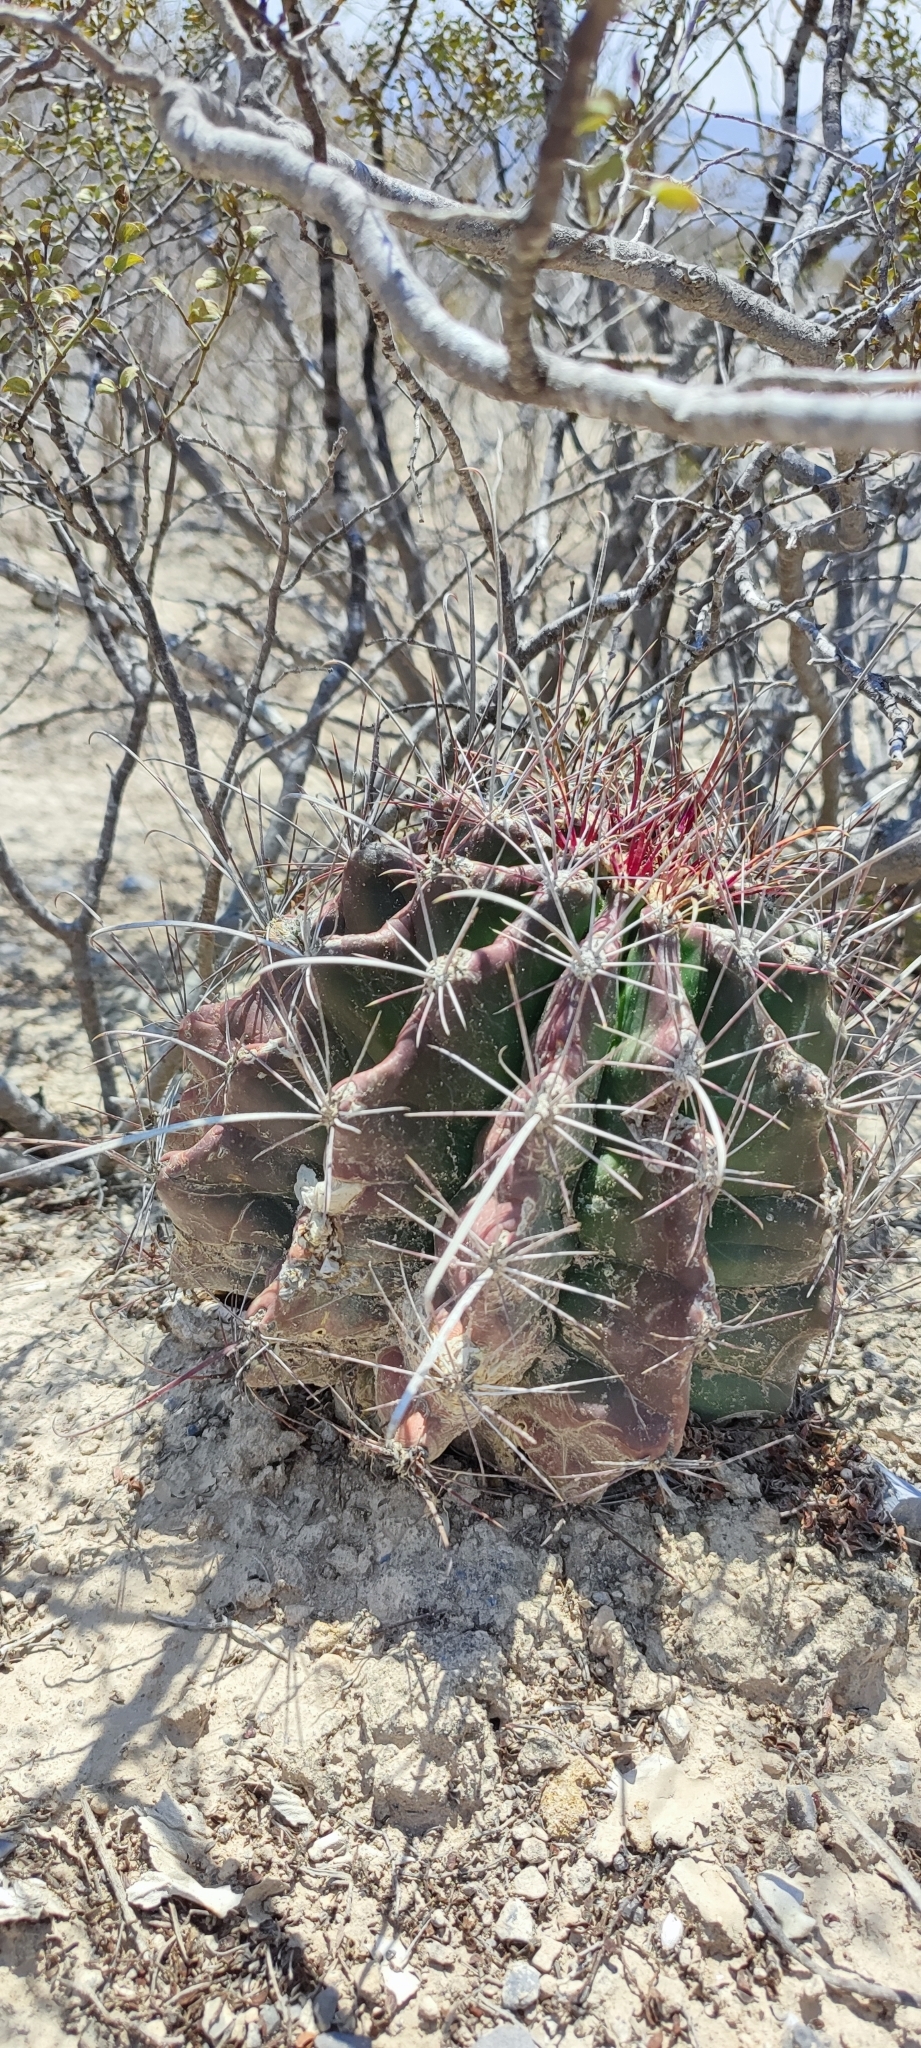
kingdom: Plantae
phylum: Tracheophyta
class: Magnoliopsida
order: Caryophyllales
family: Cactaceae
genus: Bisnaga
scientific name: Bisnaga hamatacantha
